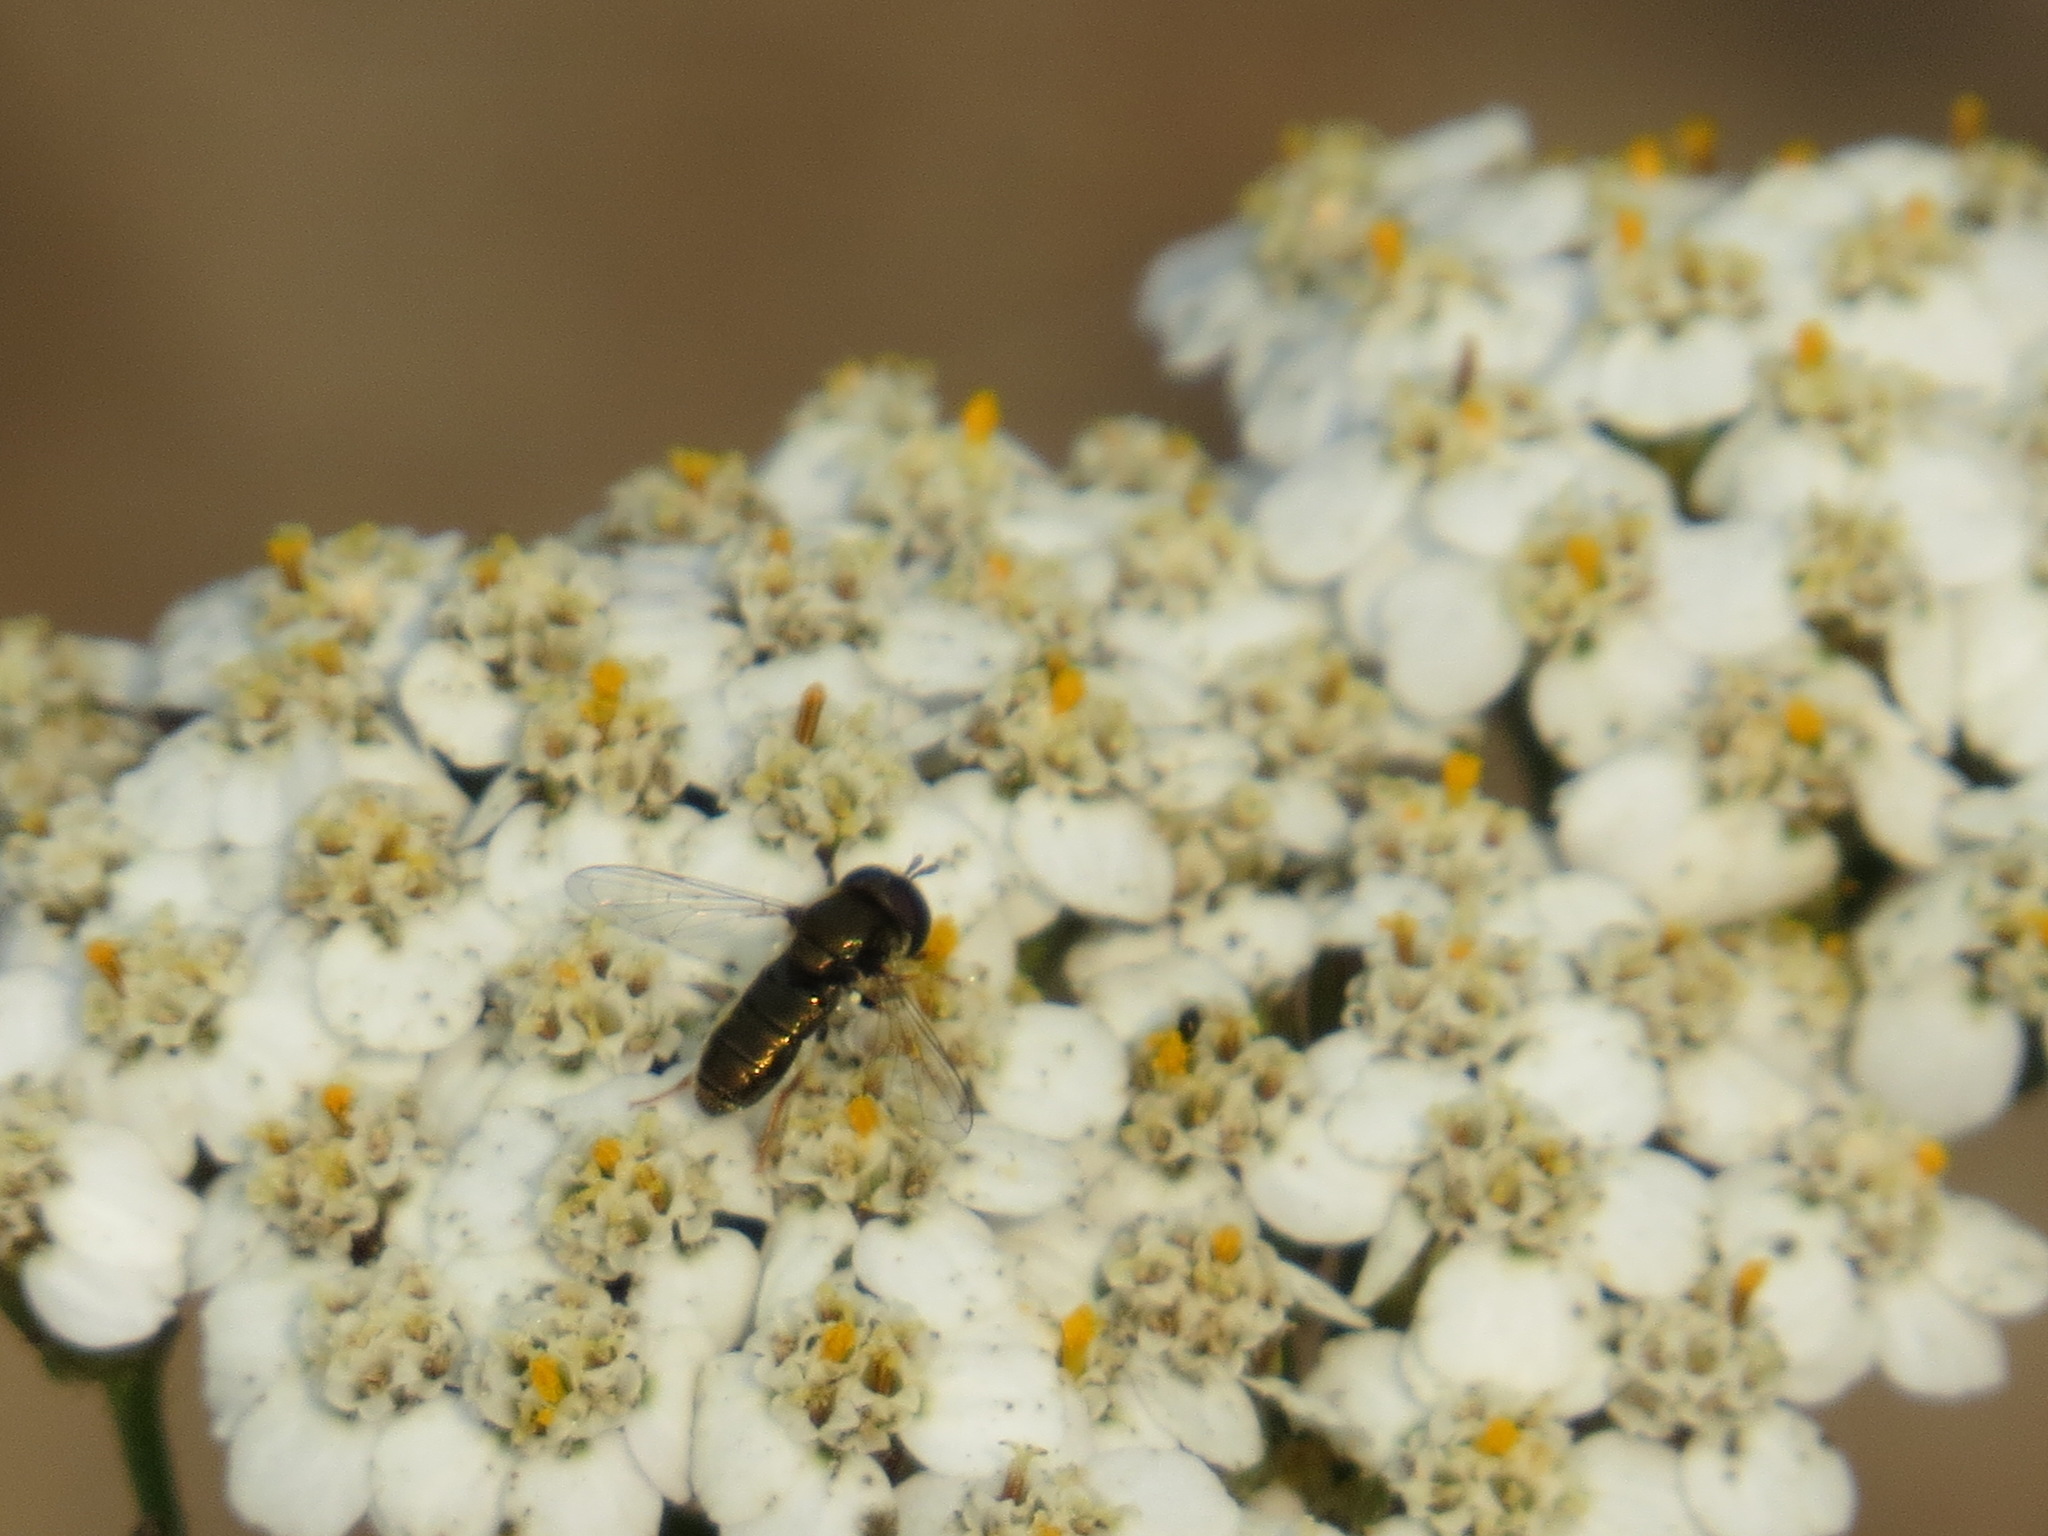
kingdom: Animalia
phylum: Arthropoda
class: Insecta
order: Diptera
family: Syrphidae
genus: Paragus
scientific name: Paragus haemorrhous
